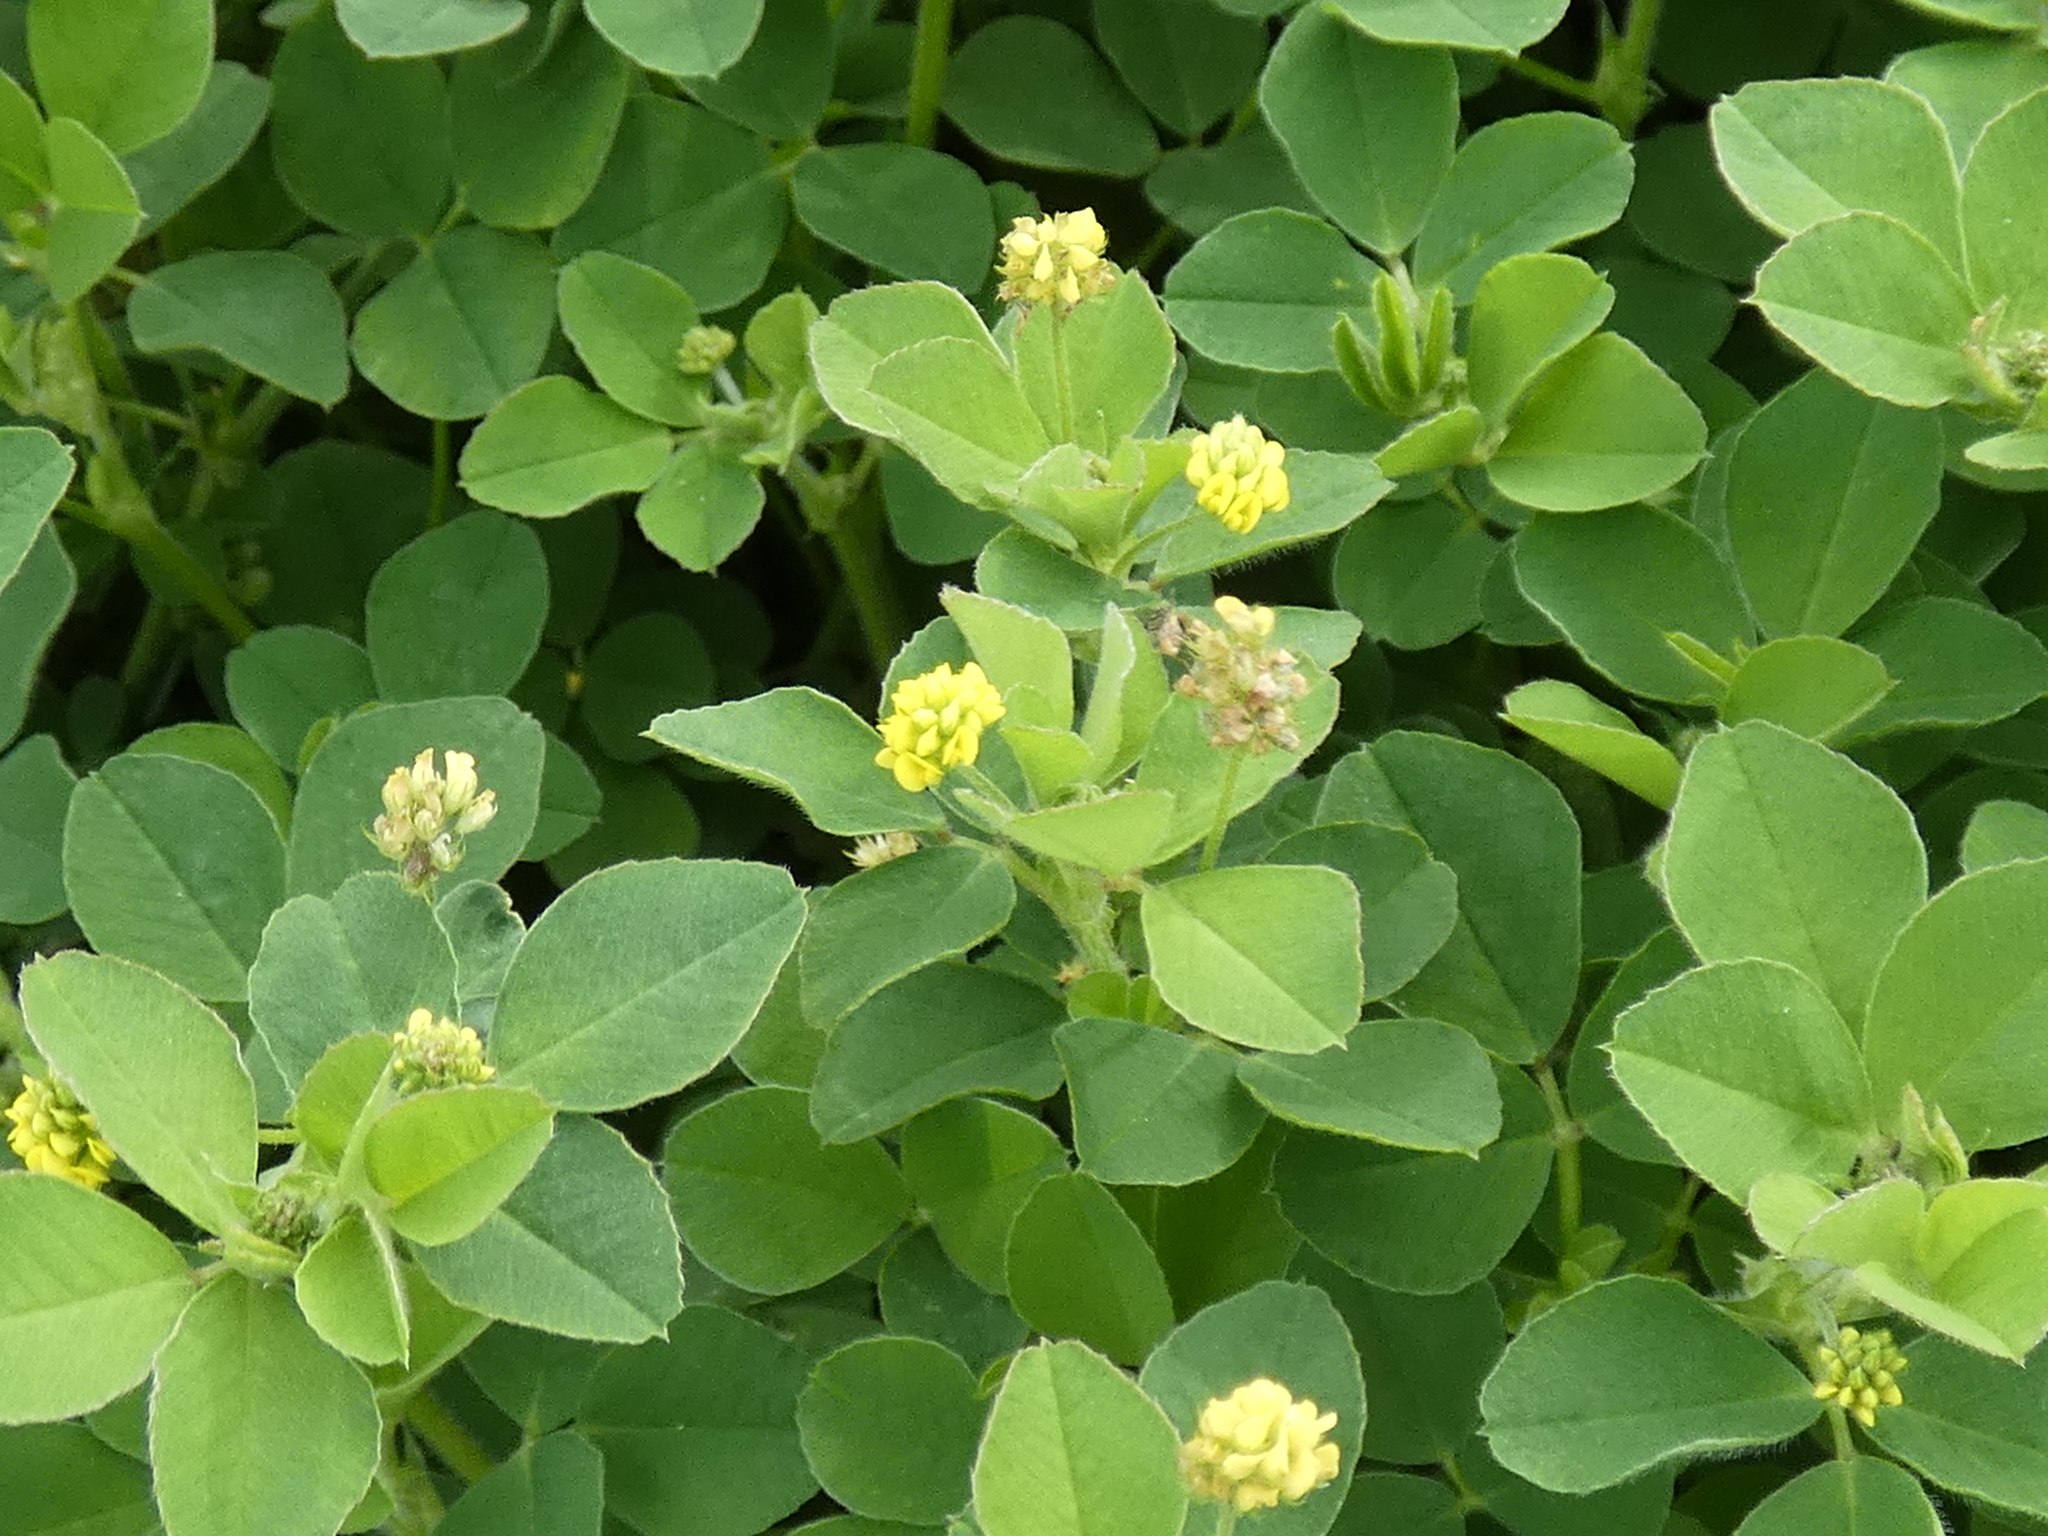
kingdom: Plantae
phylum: Tracheophyta
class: Magnoliopsida
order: Fabales
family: Fabaceae
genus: Medicago
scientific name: Medicago lupulina
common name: Black medick
